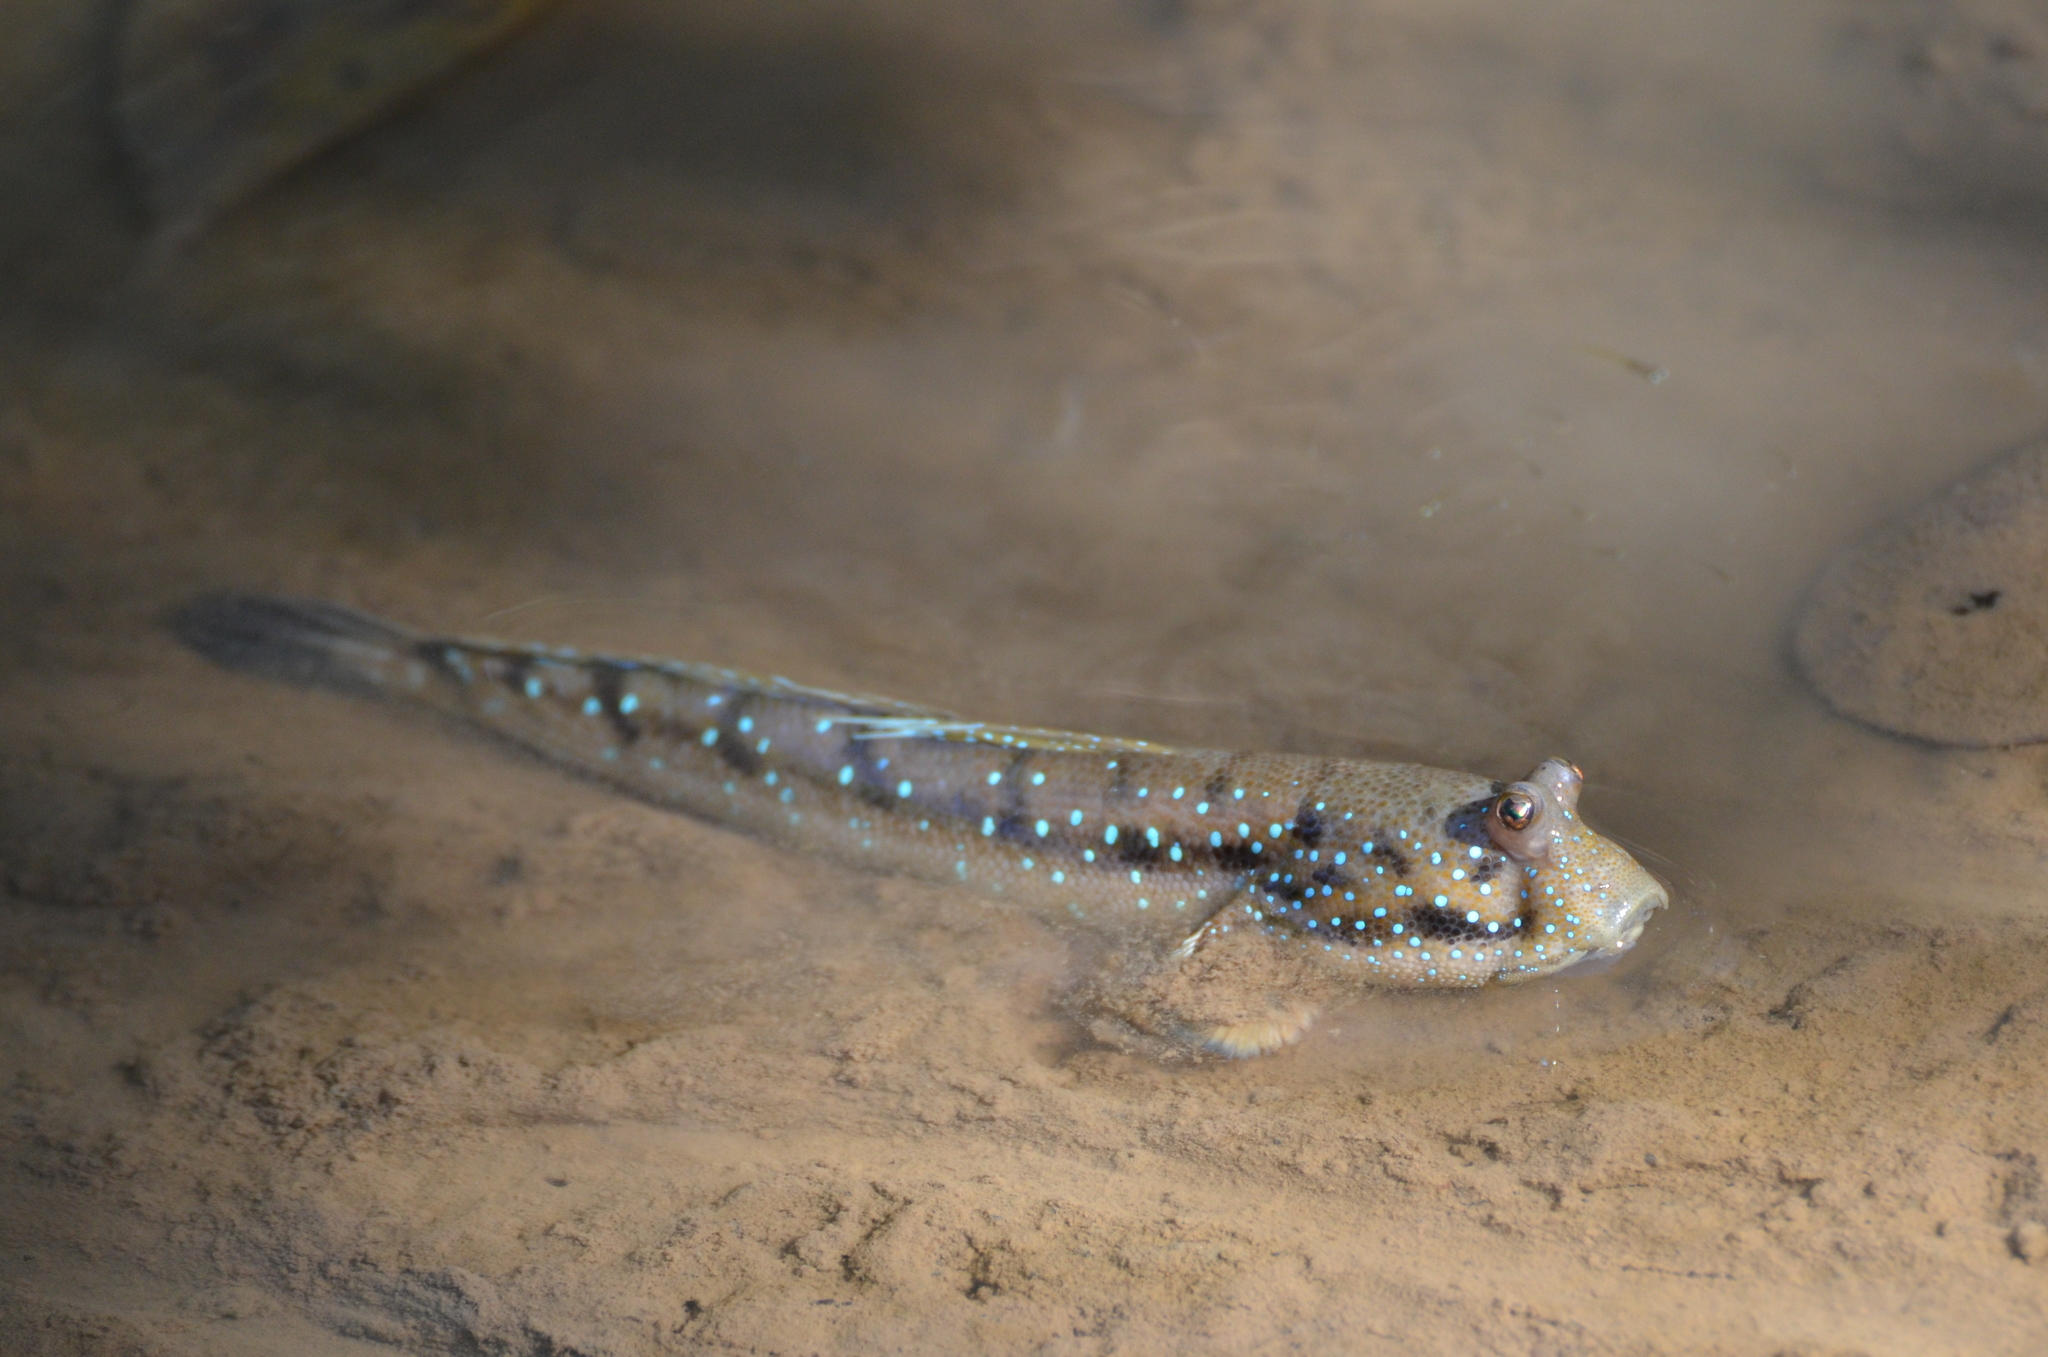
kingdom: Animalia
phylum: Chordata
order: Perciformes
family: Gobiidae
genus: Boleophthalmus
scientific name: Boleophthalmus boddarti
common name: Boddart's goggle-eyed goby
